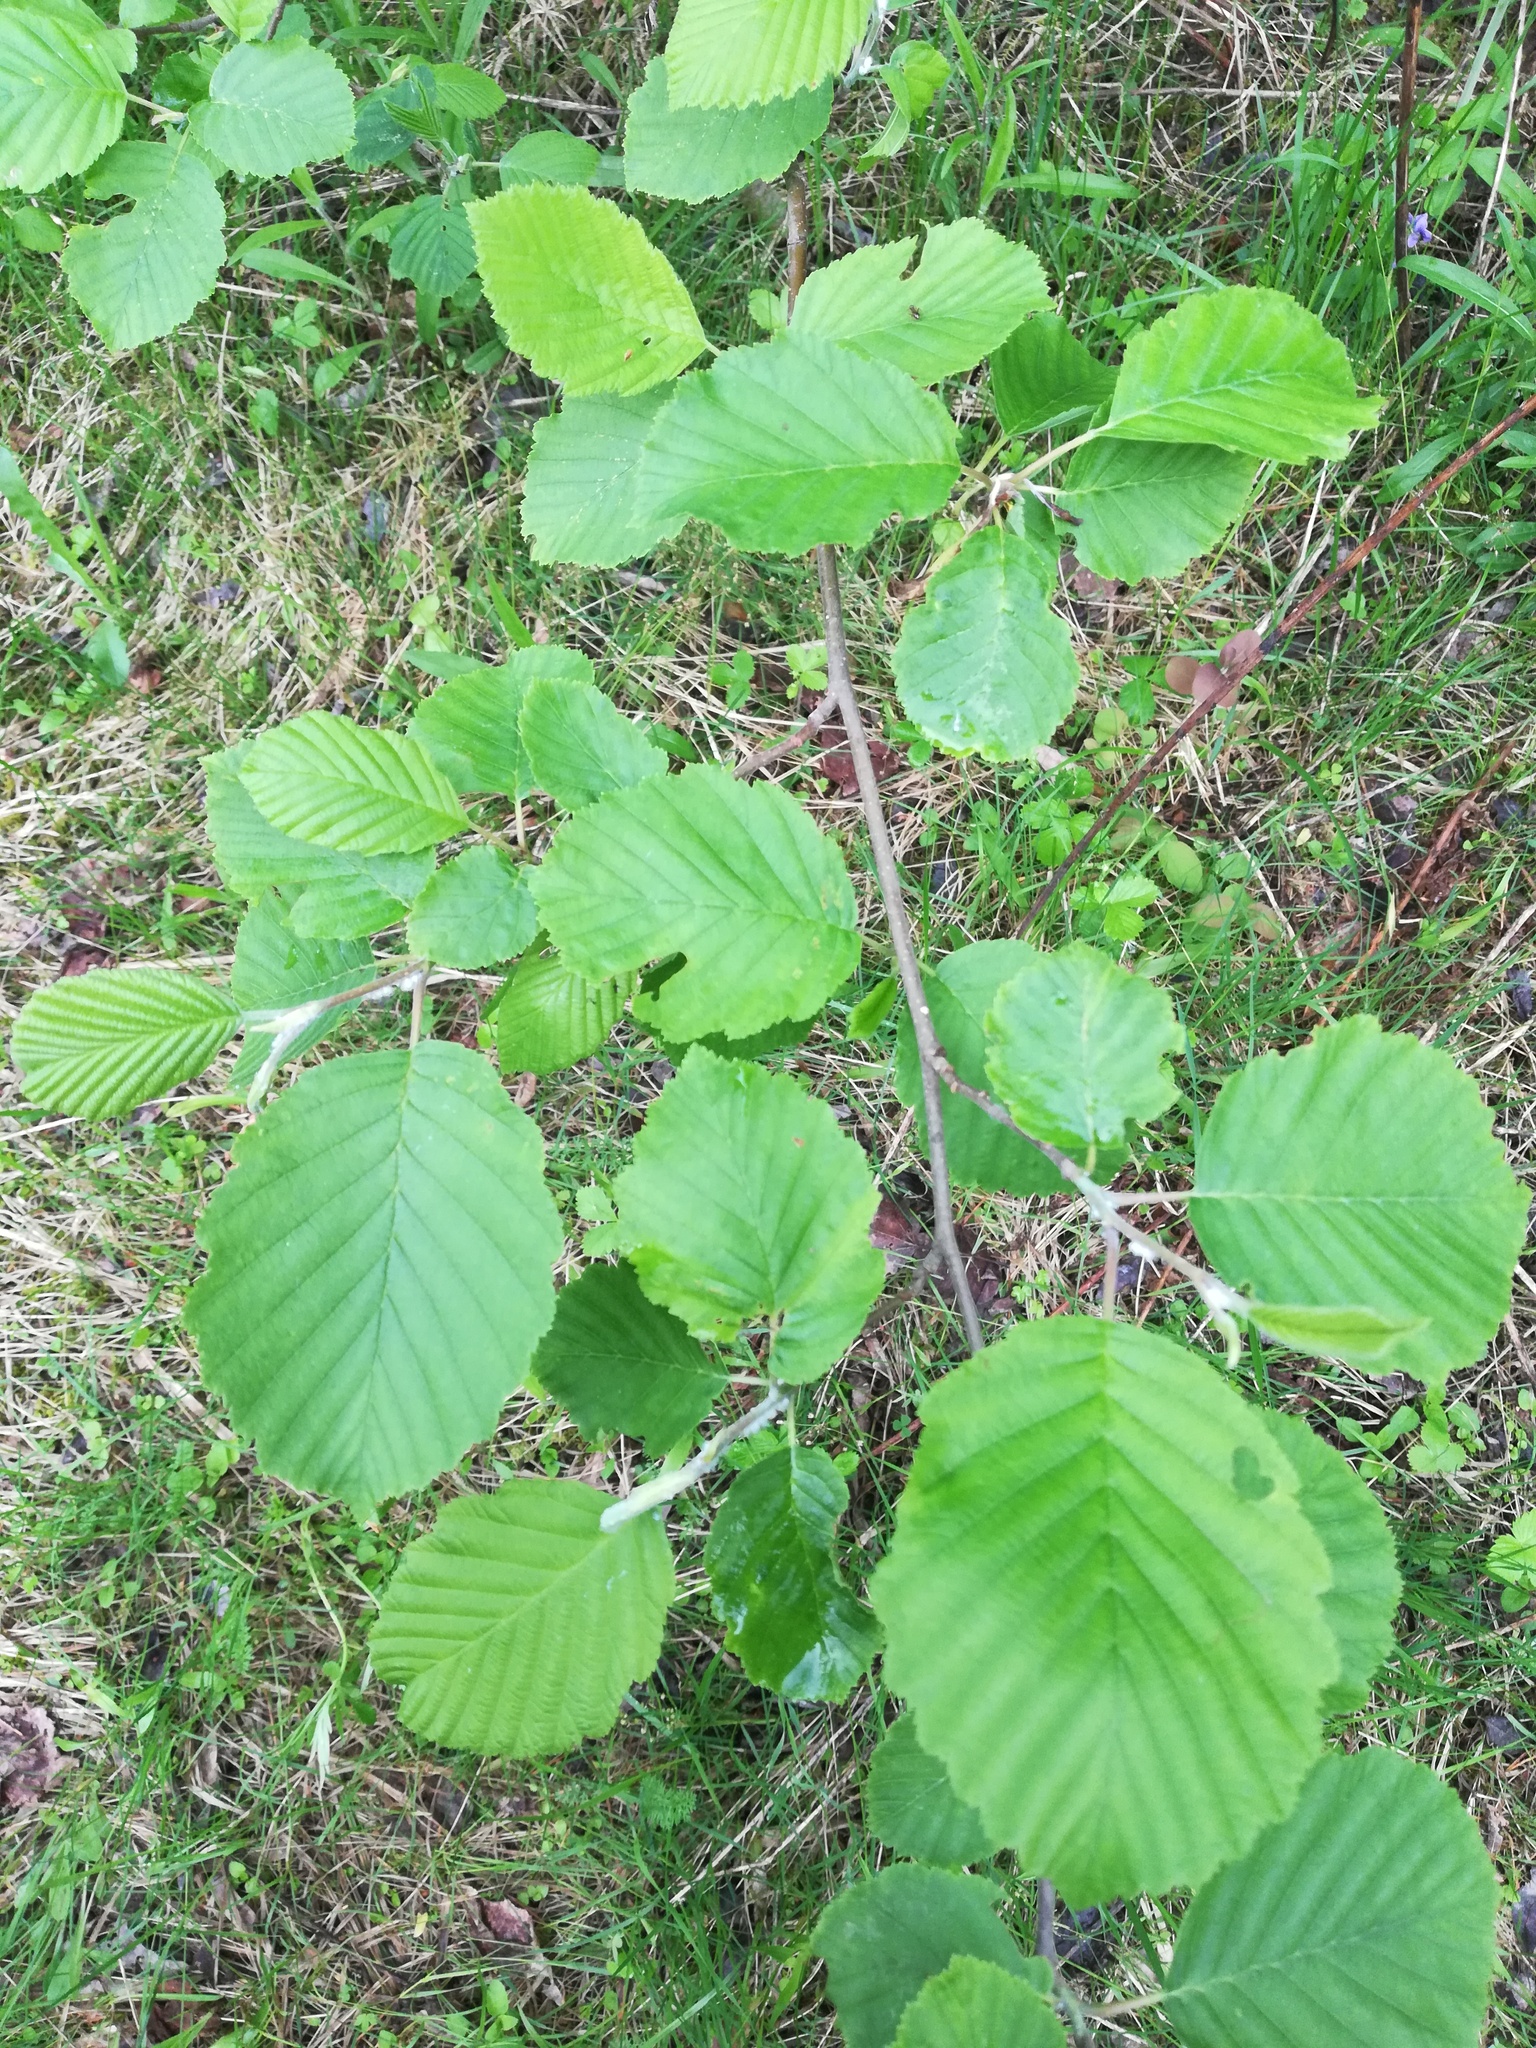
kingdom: Plantae
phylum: Tracheophyta
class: Magnoliopsida
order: Fagales
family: Betulaceae
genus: Alnus
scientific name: Alnus incana
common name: Grey alder
